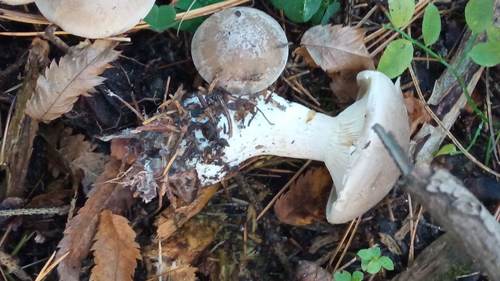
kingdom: Fungi
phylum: Basidiomycota
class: Agaricomycetes
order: Agaricales
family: Tricholomataceae
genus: Clitocybe
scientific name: Clitocybe nebularis
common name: Clouded agaric
